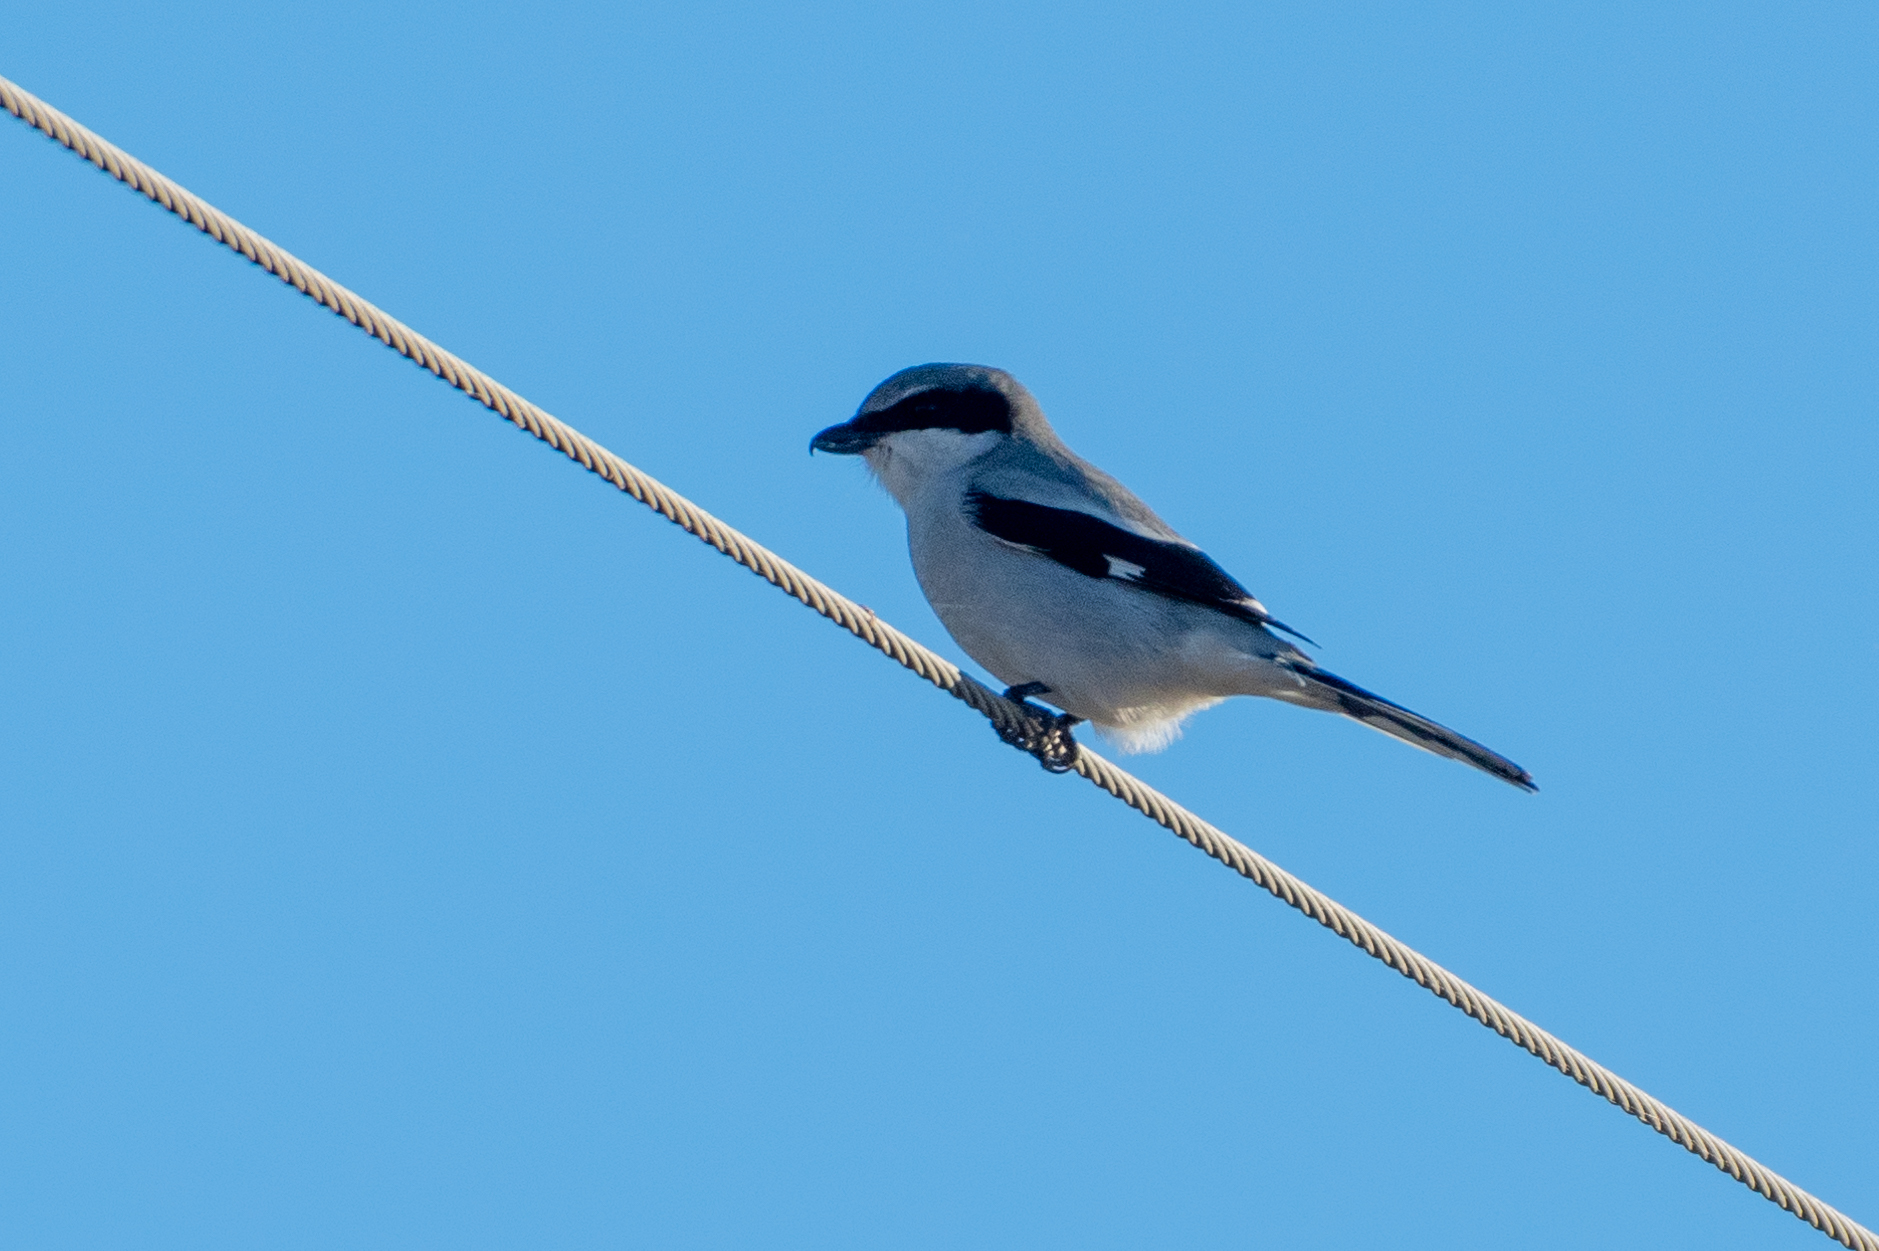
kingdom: Animalia
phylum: Chordata
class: Aves
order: Passeriformes
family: Laniidae
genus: Lanius
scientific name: Lanius ludovicianus
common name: Loggerhead shrike
